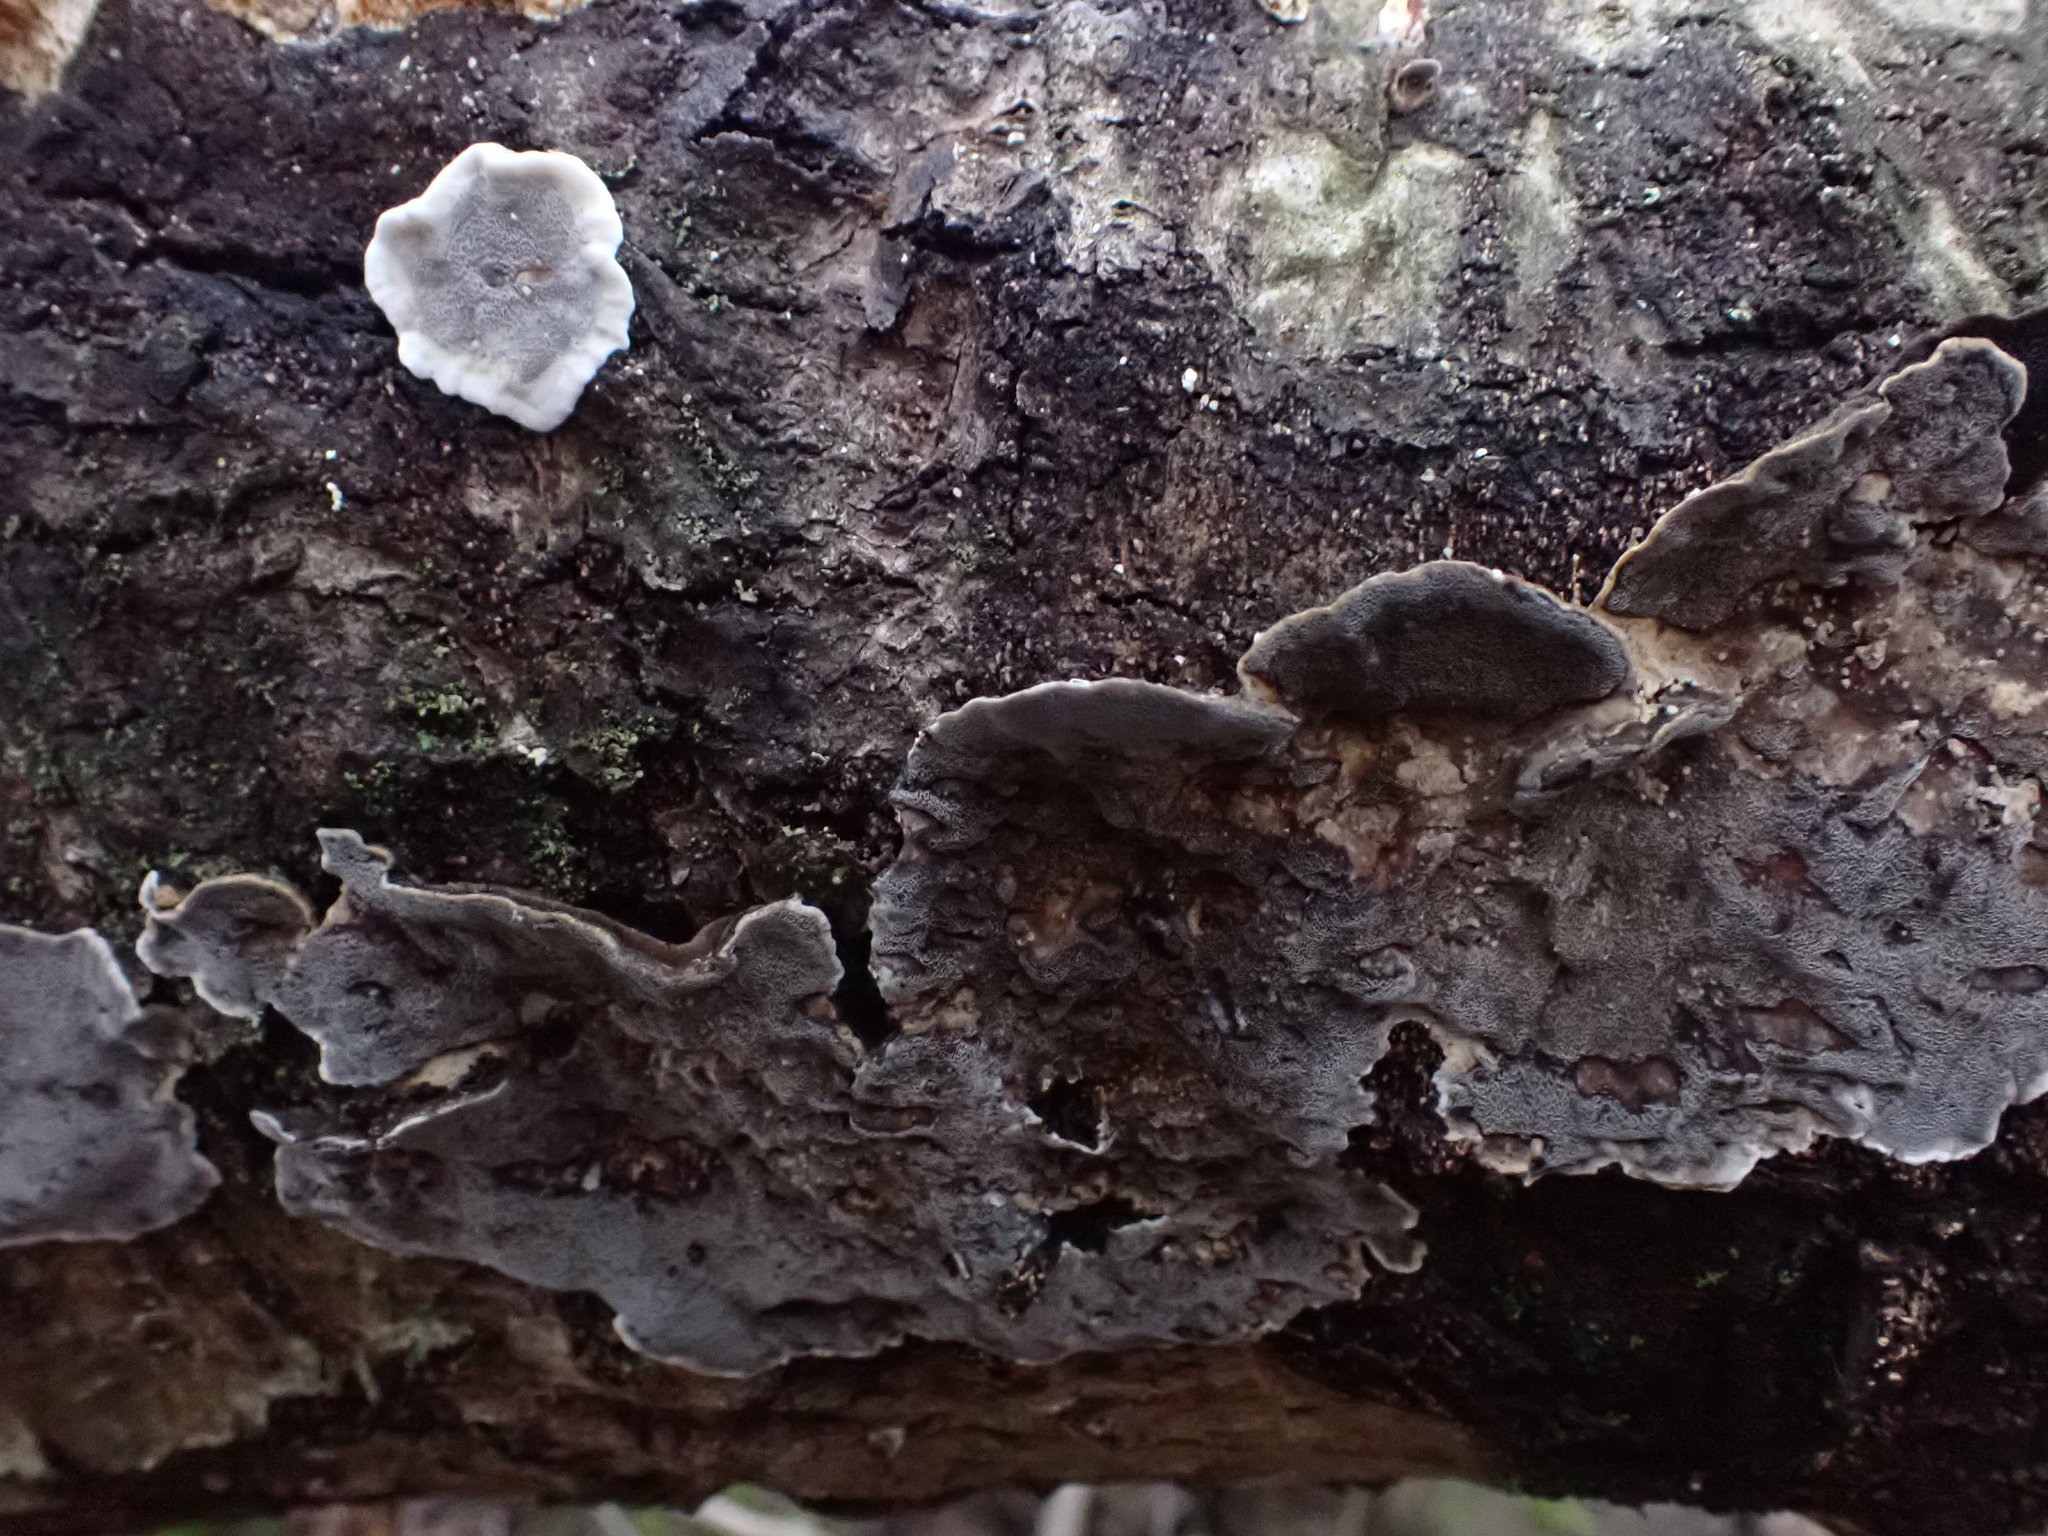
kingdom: Fungi
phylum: Basidiomycota
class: Agaricomycetes
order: Polyporales
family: Phanerochaetaceae
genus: Bjerkandera
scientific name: Bjerkandera adusta
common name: Smoky bracket
